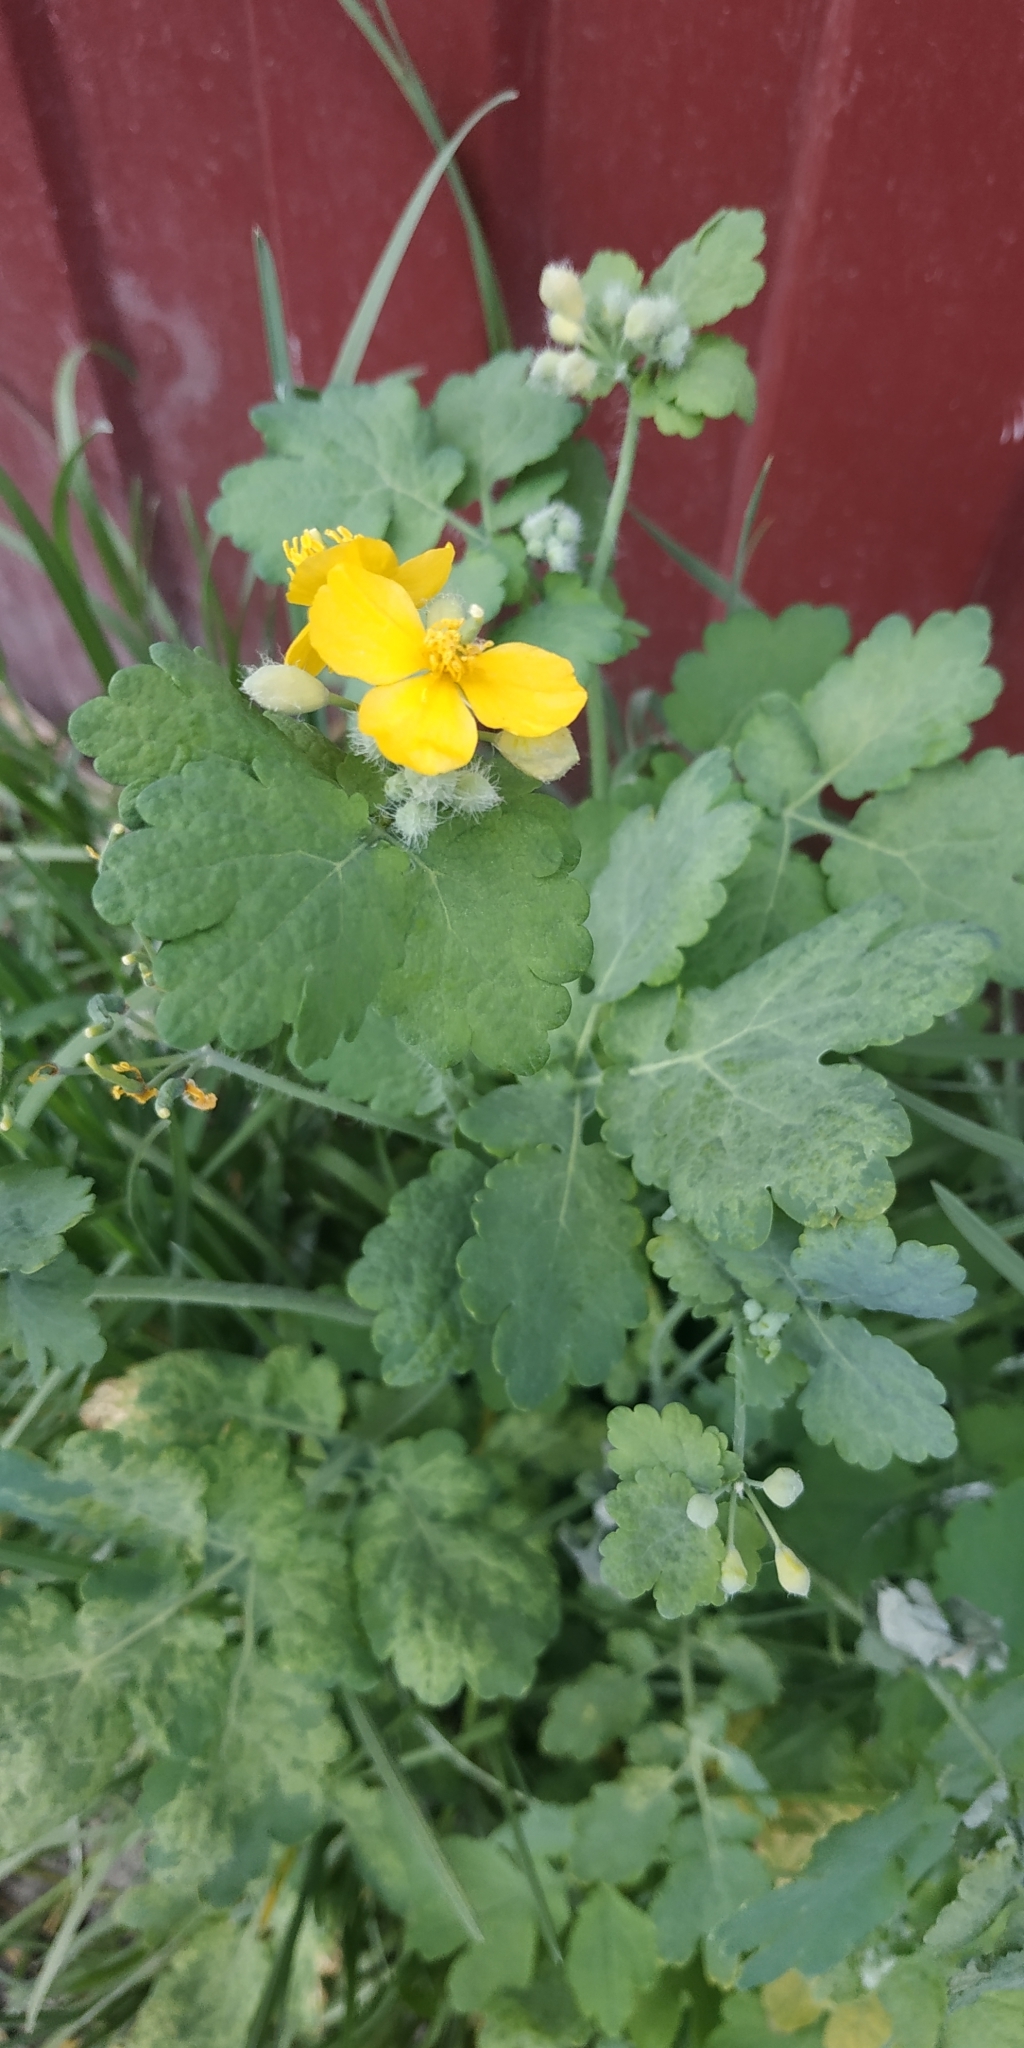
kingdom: Plantae
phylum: Tracheophyta
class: Magnoliopsida
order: Ranunculales
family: Papaveraceae
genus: Chelidonium
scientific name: Chelidonium majus
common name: Greater celandine
